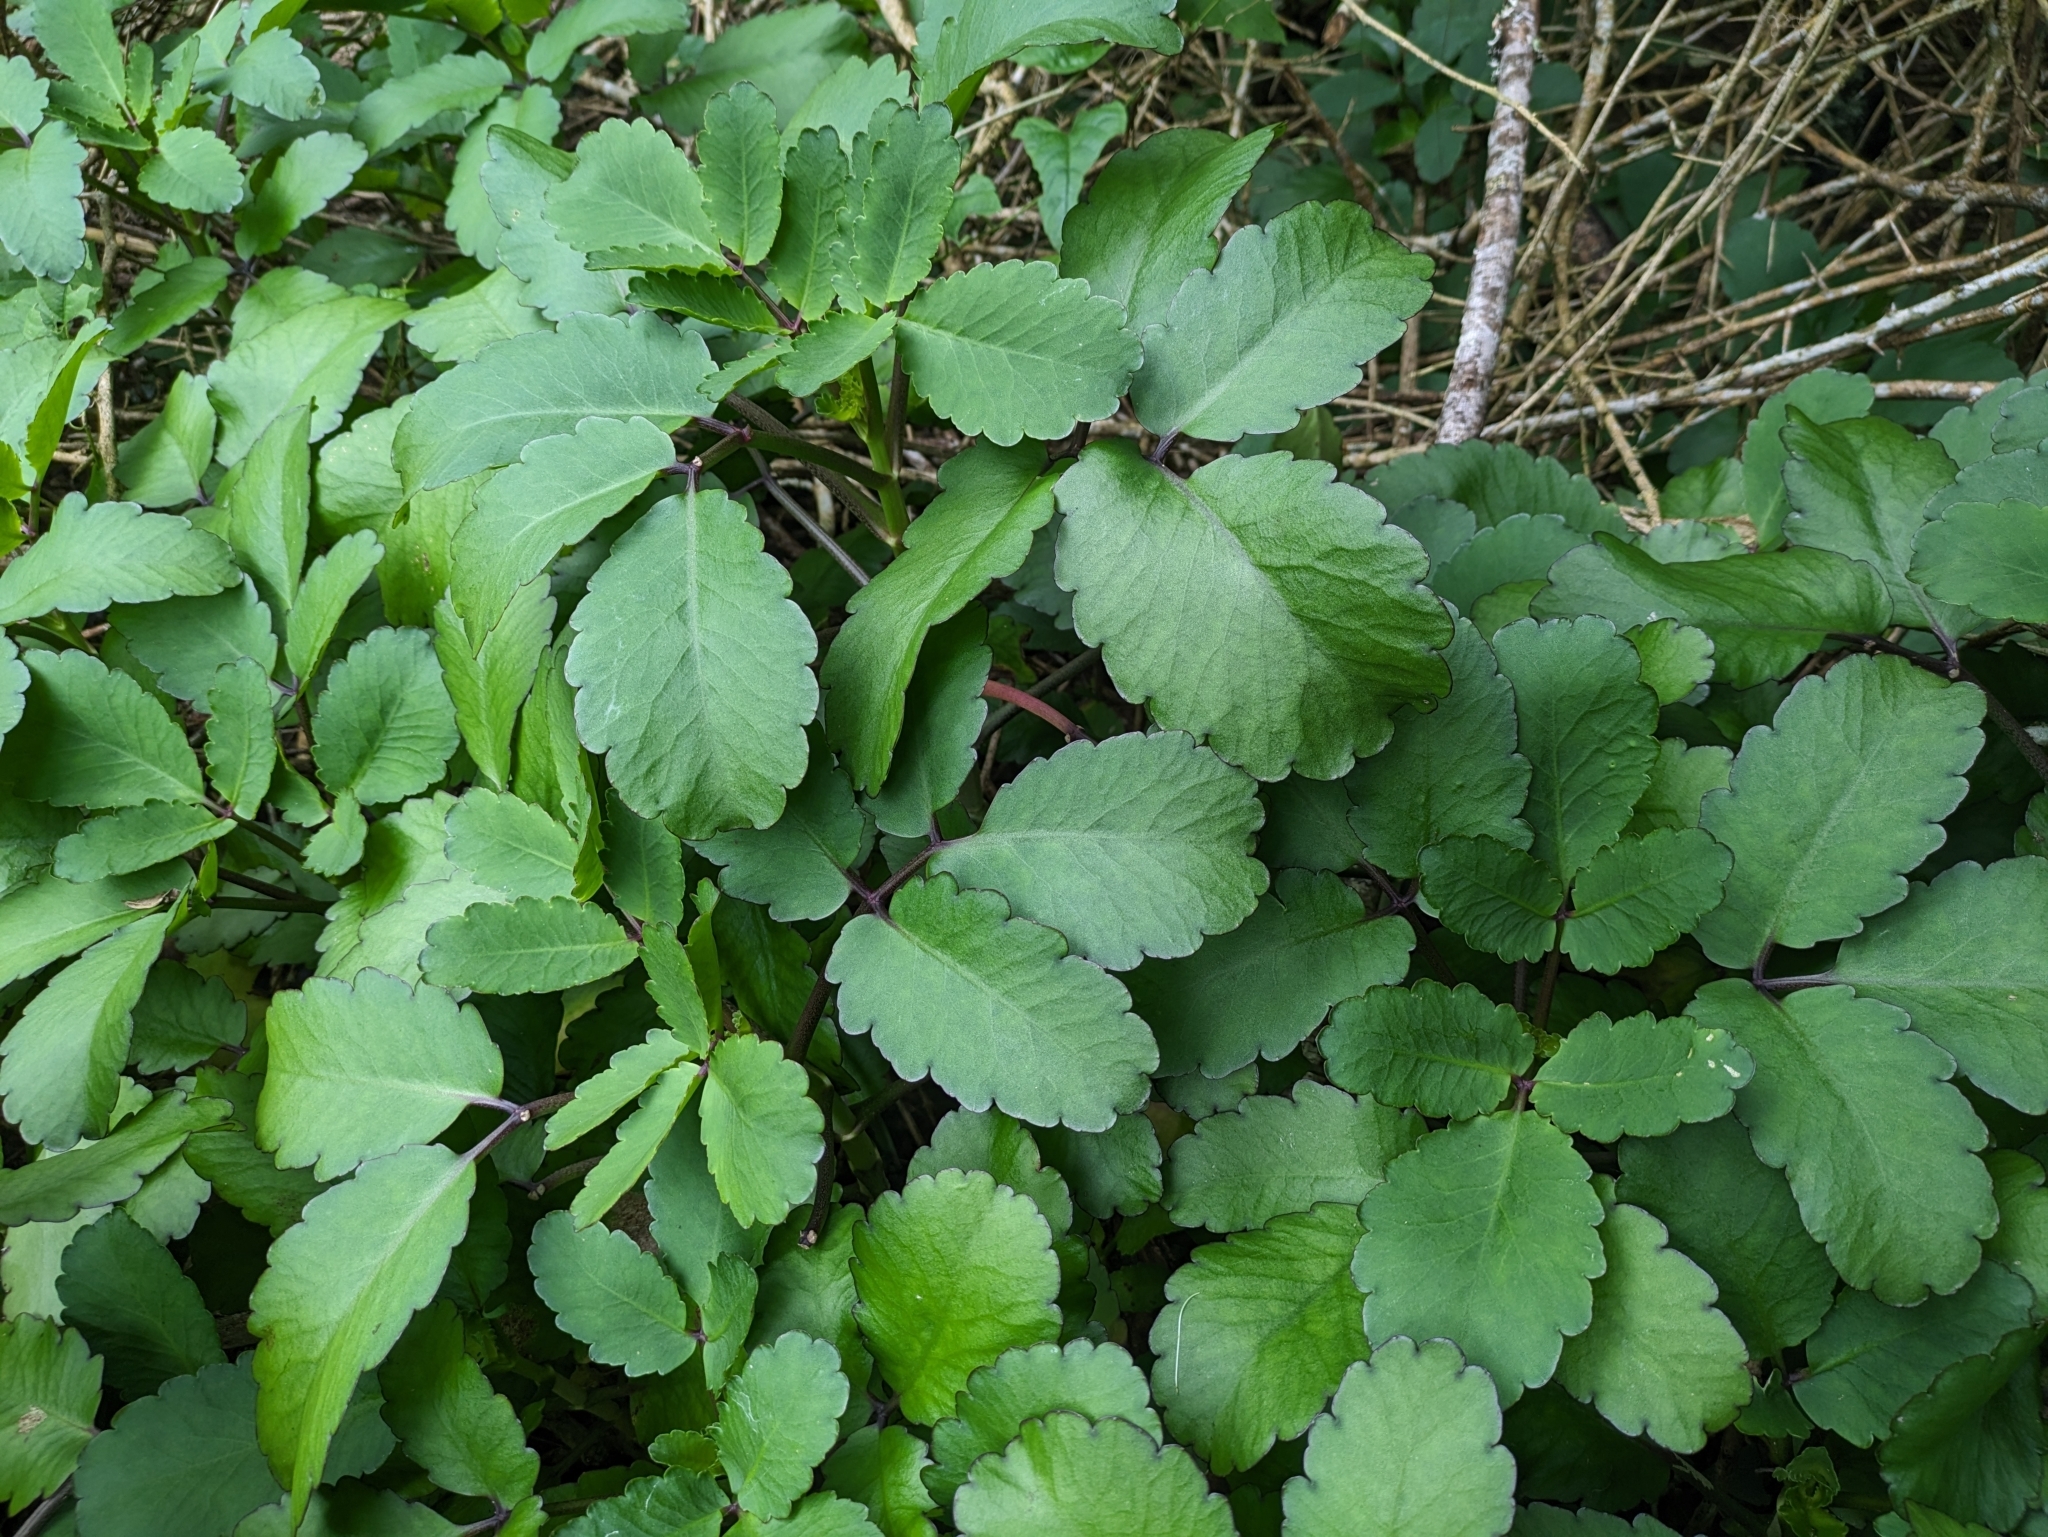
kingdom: Plantae
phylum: Tracheophyta
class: Magnoliopsida
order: Saxifragales
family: Crassulaceae
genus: Kalanchoe
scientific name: Kalanchoe pinnata
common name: Cathedral bells
